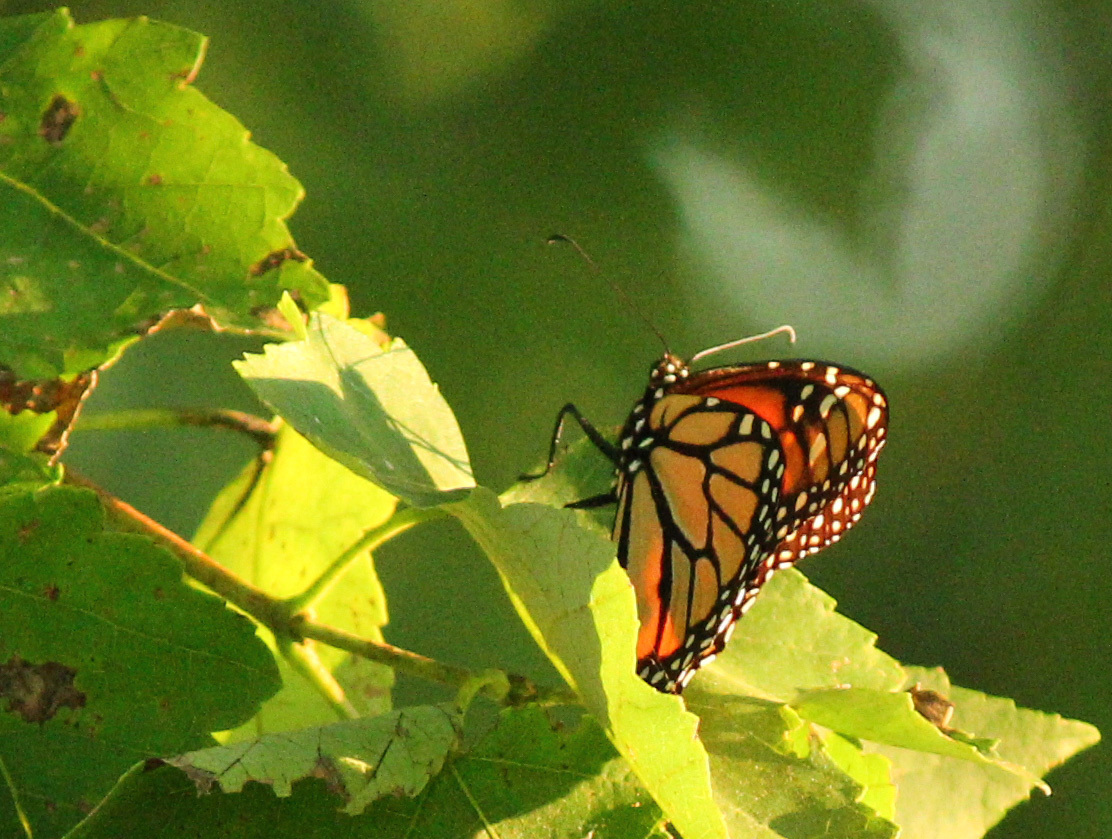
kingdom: Animalia
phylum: Arthropoda
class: Insecta
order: Lepidoptera
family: Nymphalidae
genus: Danaus
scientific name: Danaus plexippus
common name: Monarch
